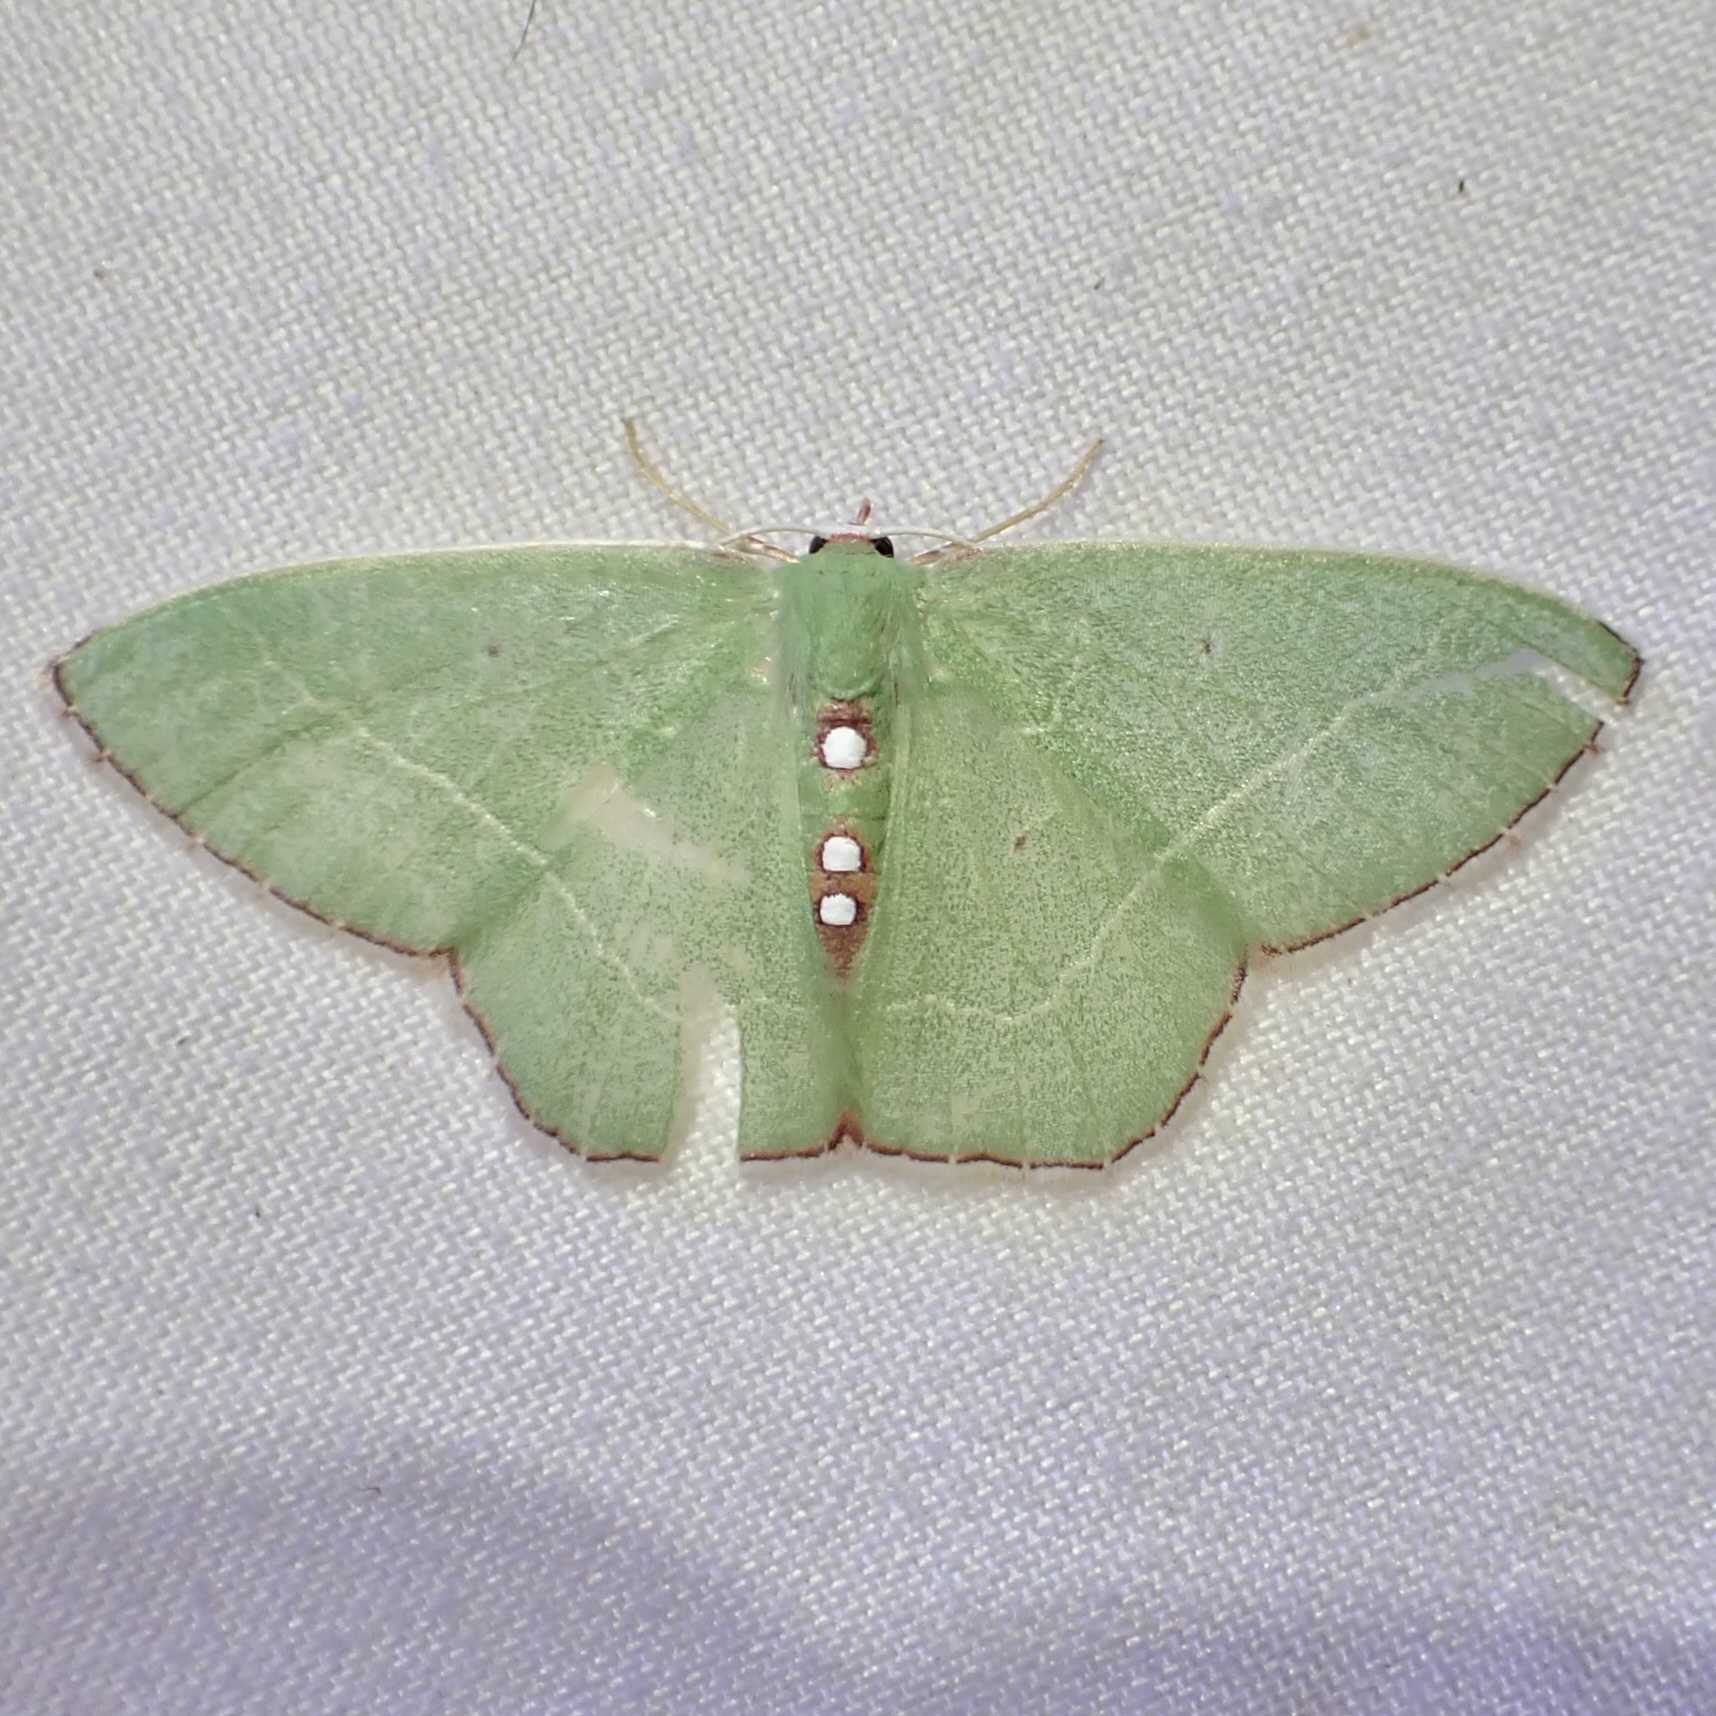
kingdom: Animalia
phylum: Arthropoda
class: Insecta
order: Lepidoptera
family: Geometridae
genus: Nemoria
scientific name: Nemoria zelotes
